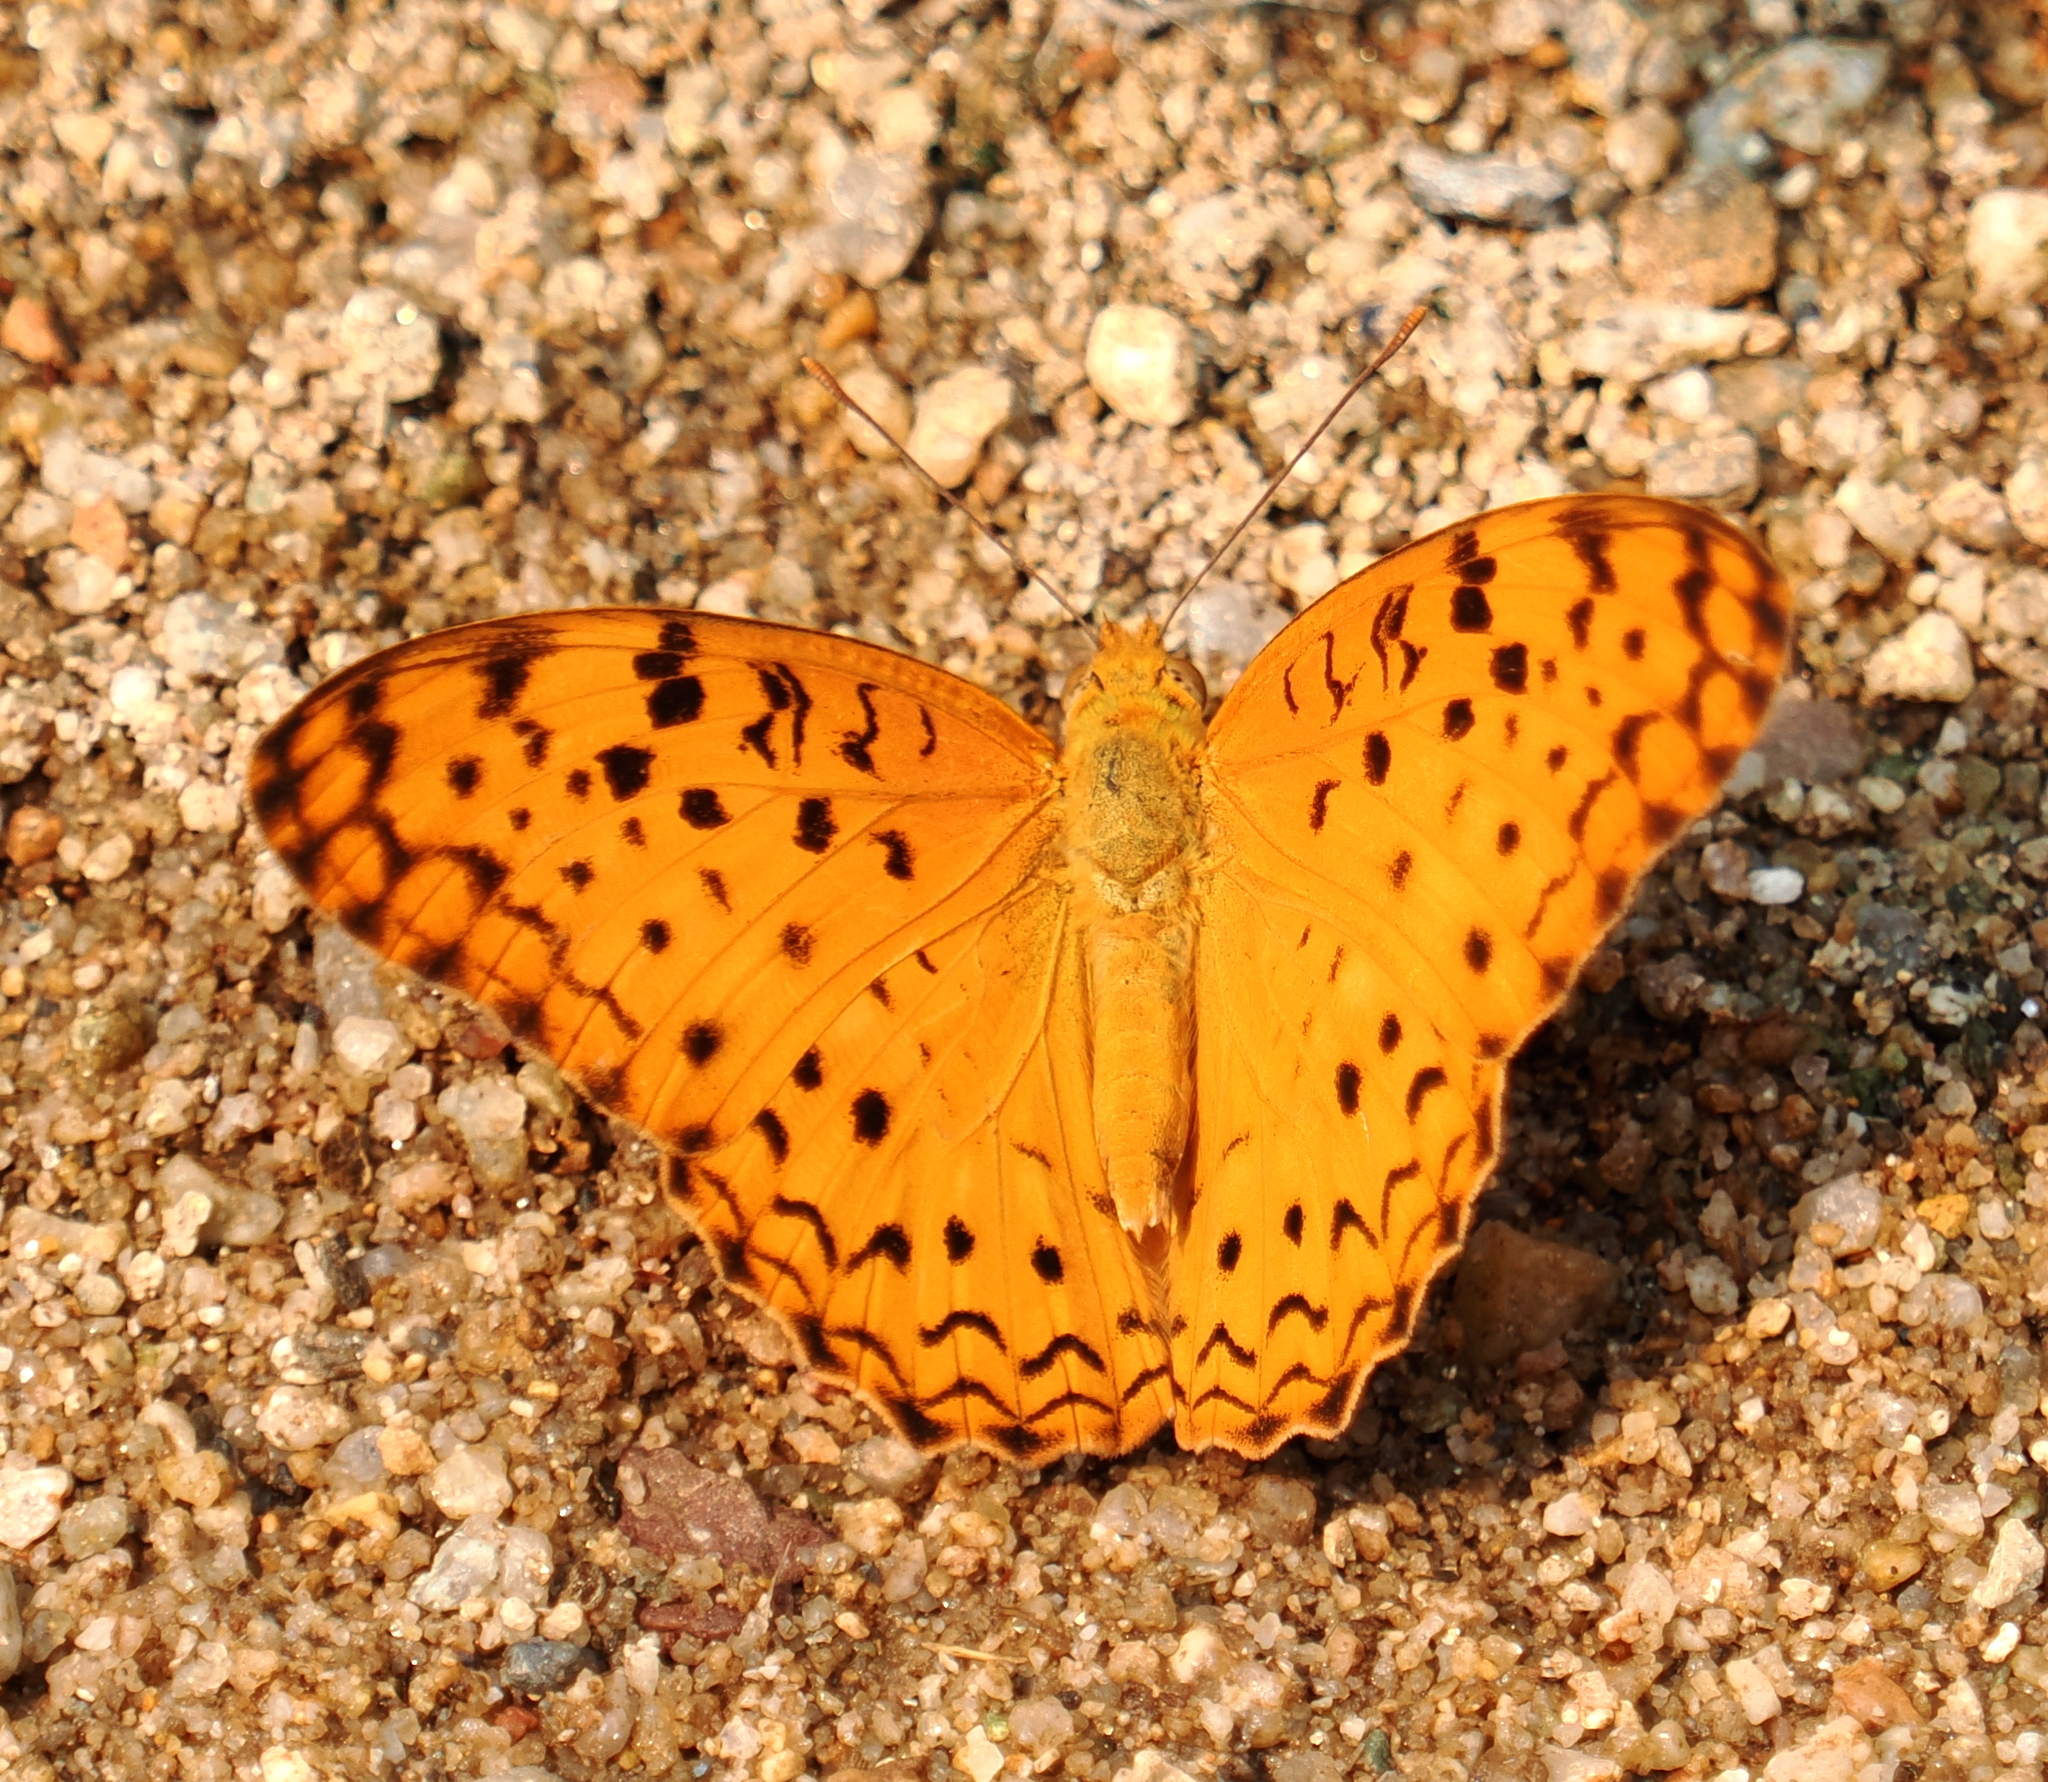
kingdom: Animalia
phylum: Arthropoda
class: Insecta
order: Lepidoptera
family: Nymphalidae
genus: Phalanta
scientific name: Phalanta phalantha
